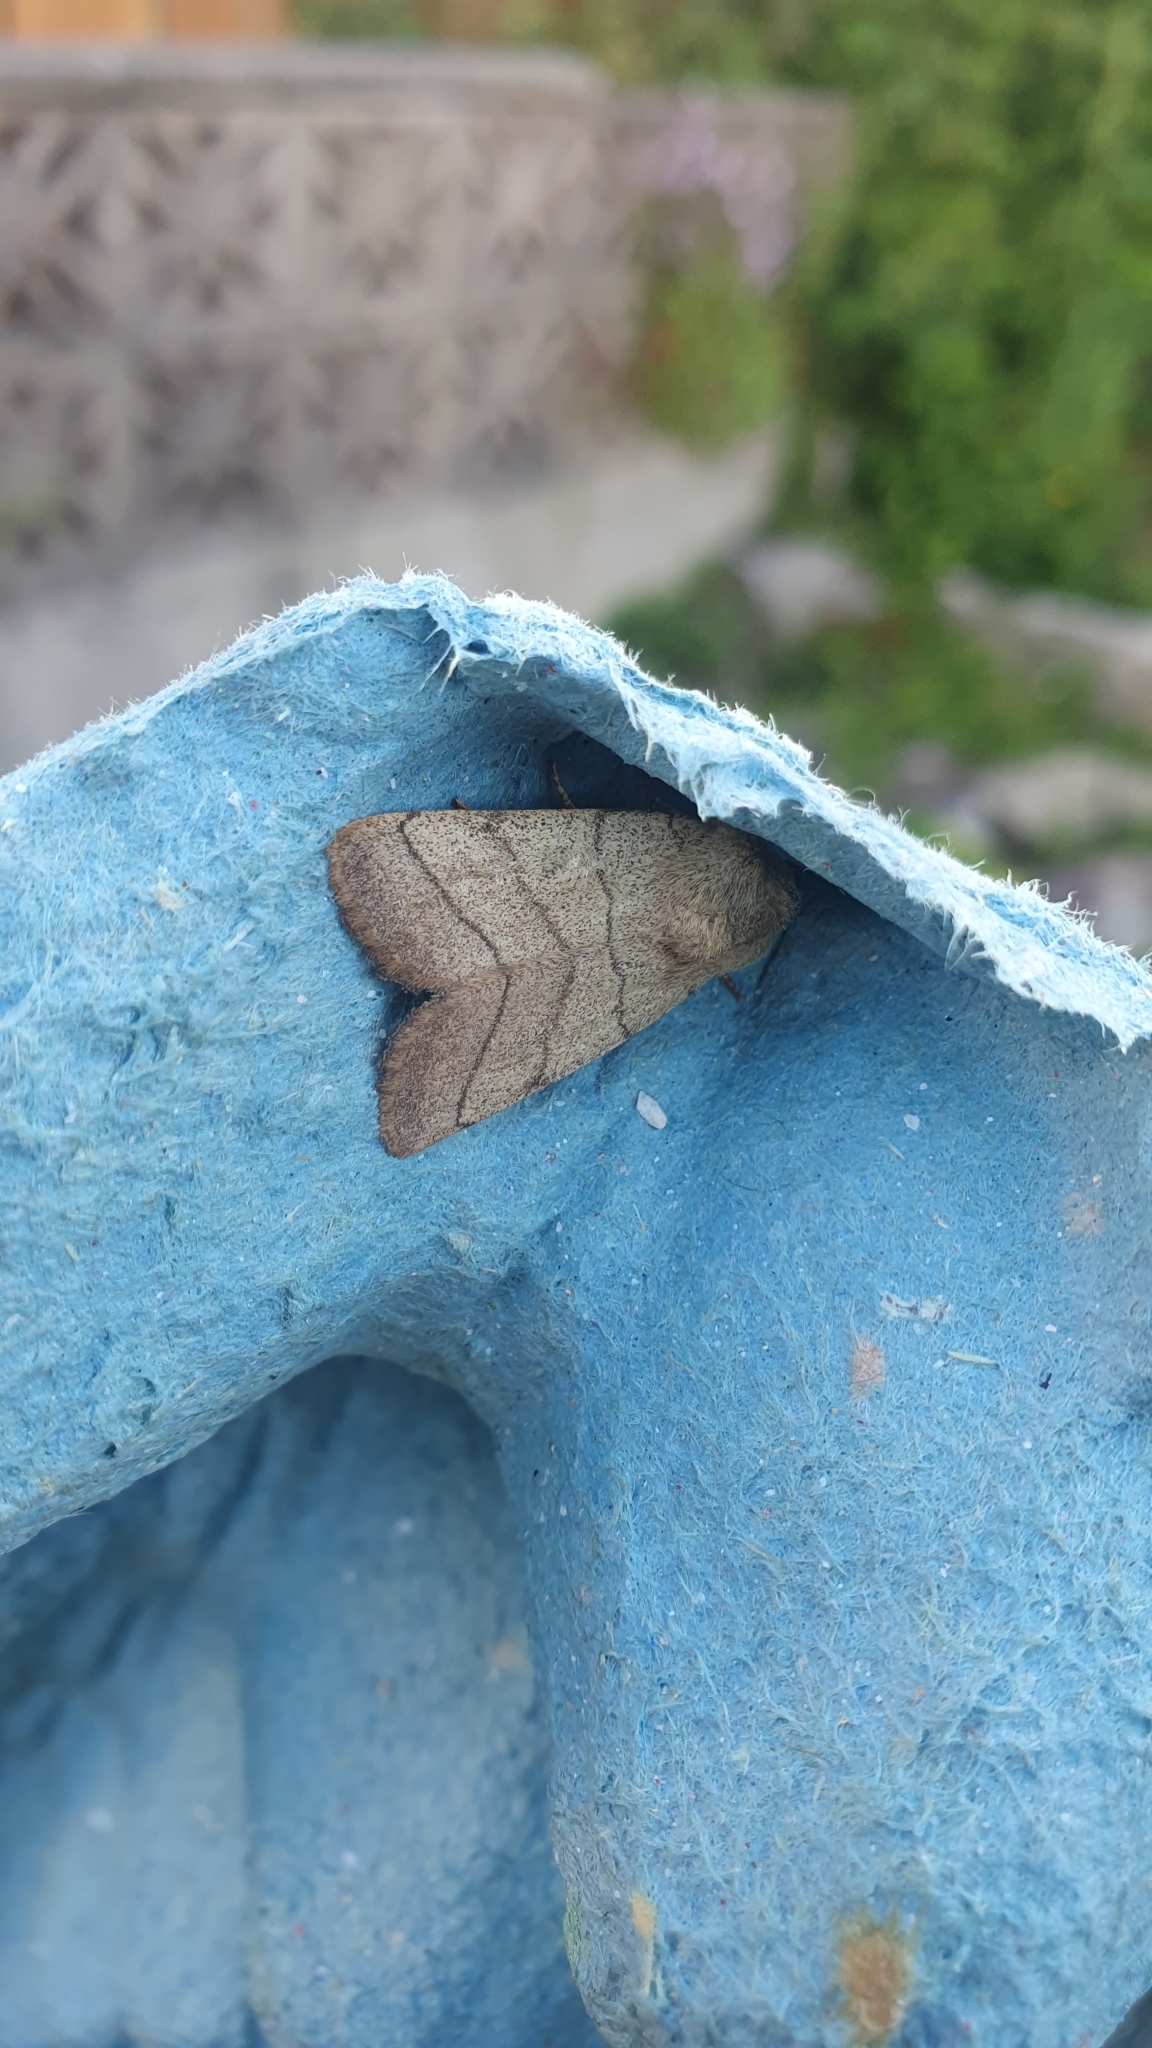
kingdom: Animalia
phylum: Arthropoda
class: Insecta
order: Lepidoptera
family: Noctuidae
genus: Charanyca
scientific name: Charanyca trigrammica
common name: Treble lines
